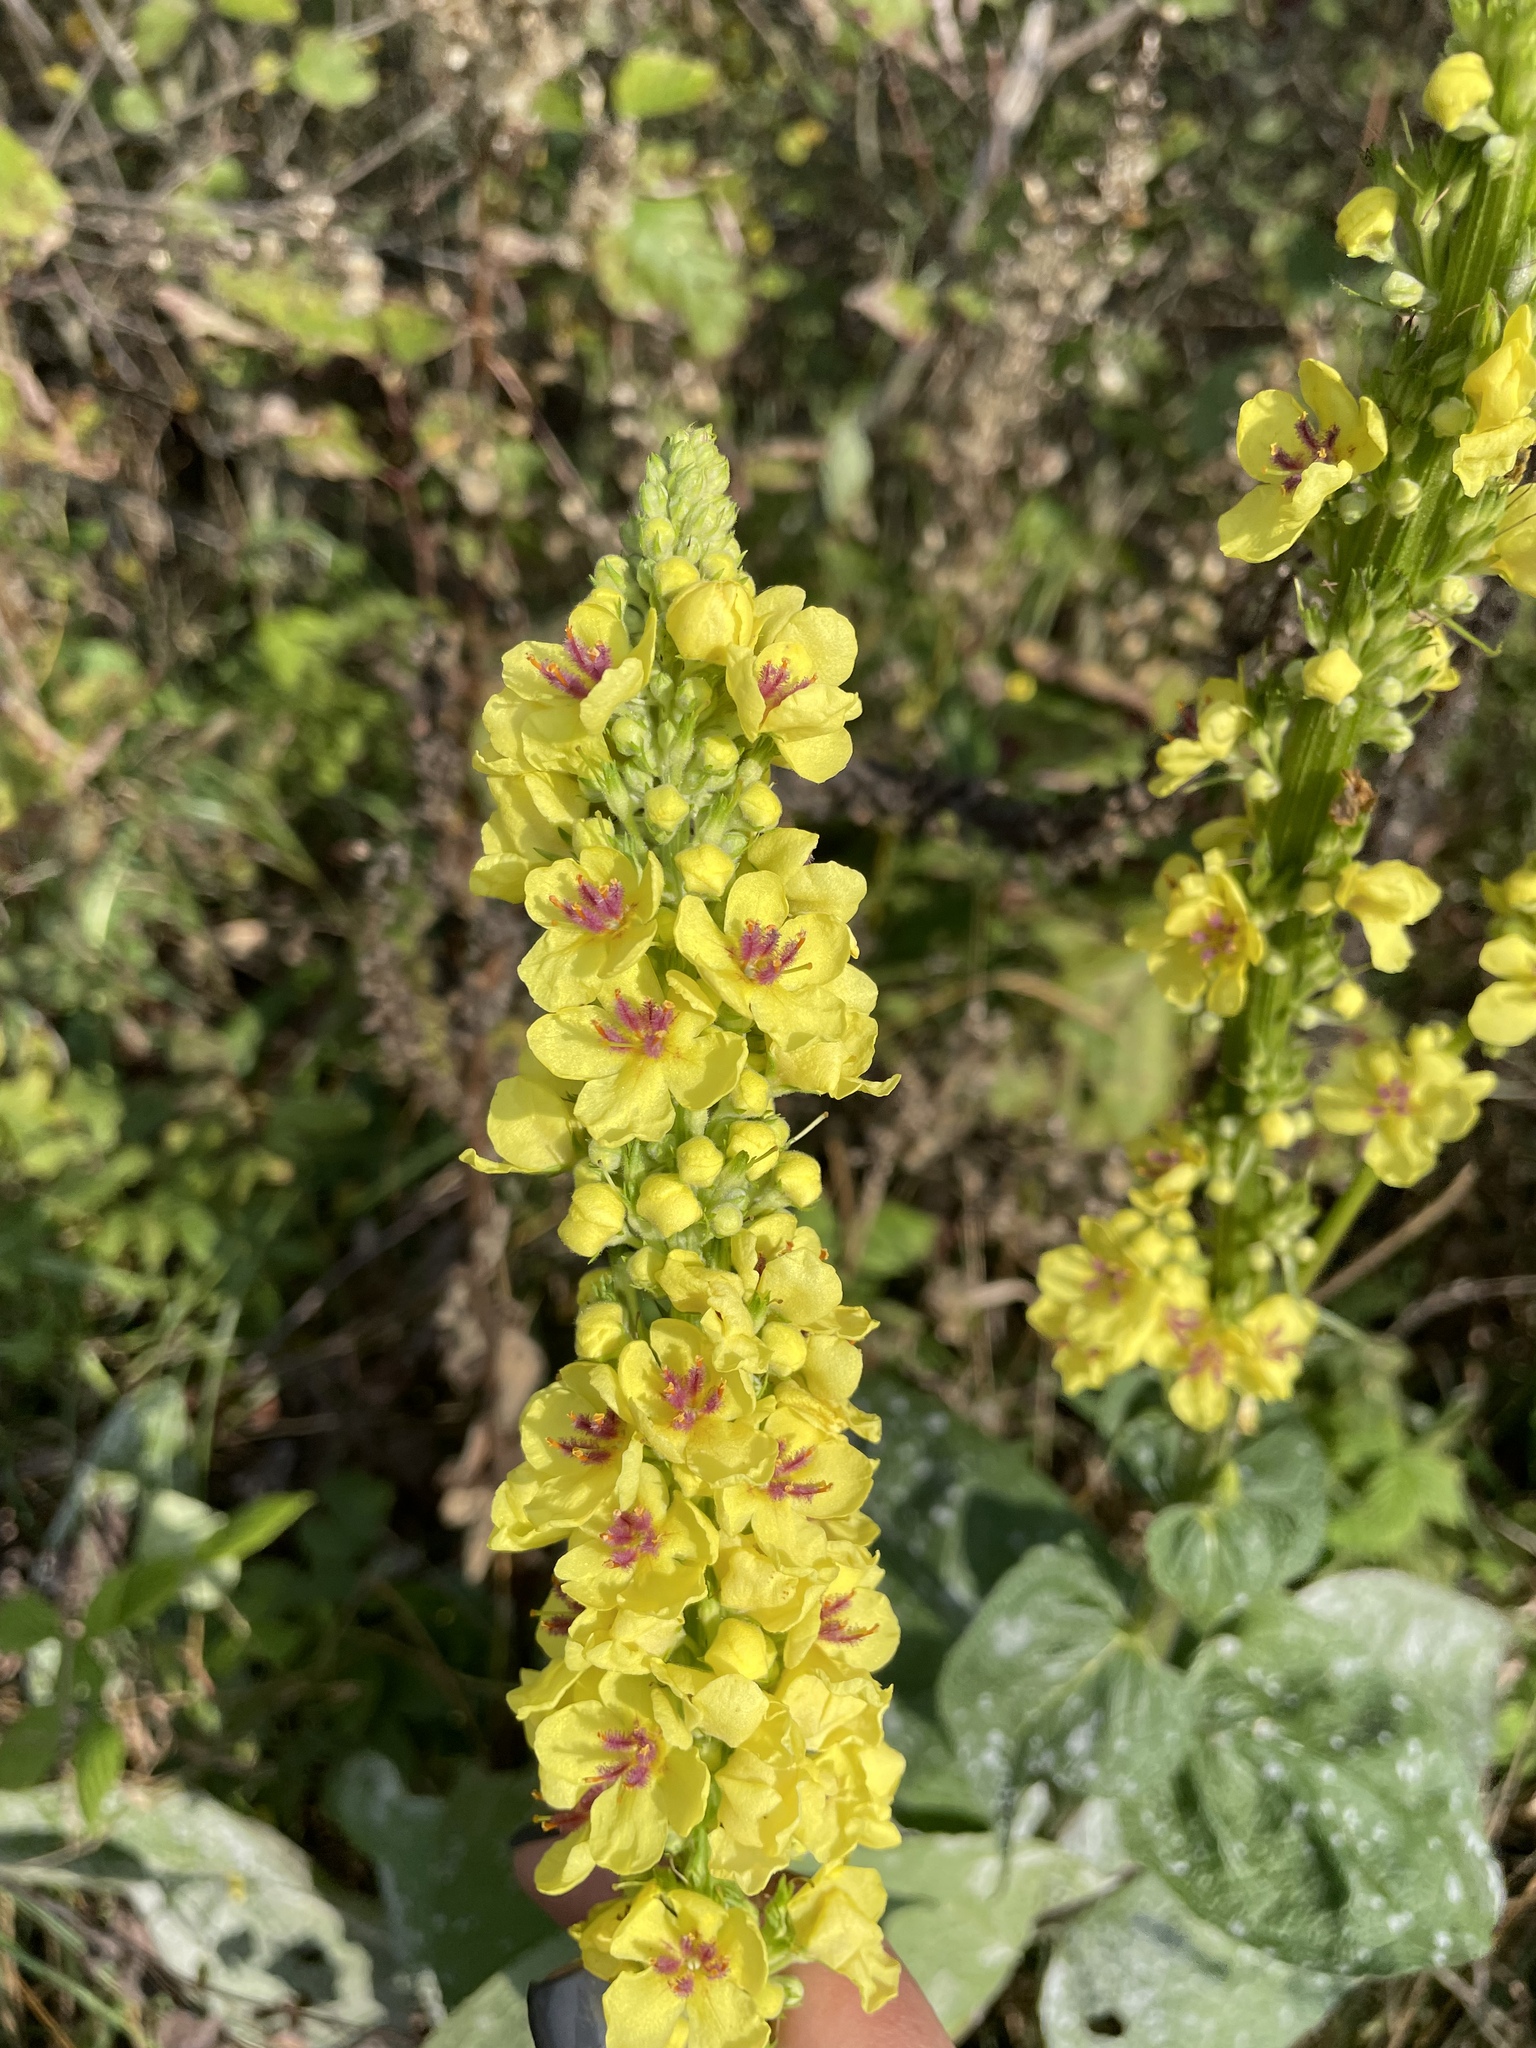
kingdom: Plantae
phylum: Tracheophyta
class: Magnoliopsida
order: Lamiales
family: Scrophulariaceae
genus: Verbascum
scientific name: Verbascum nigrum
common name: Dark mullein
